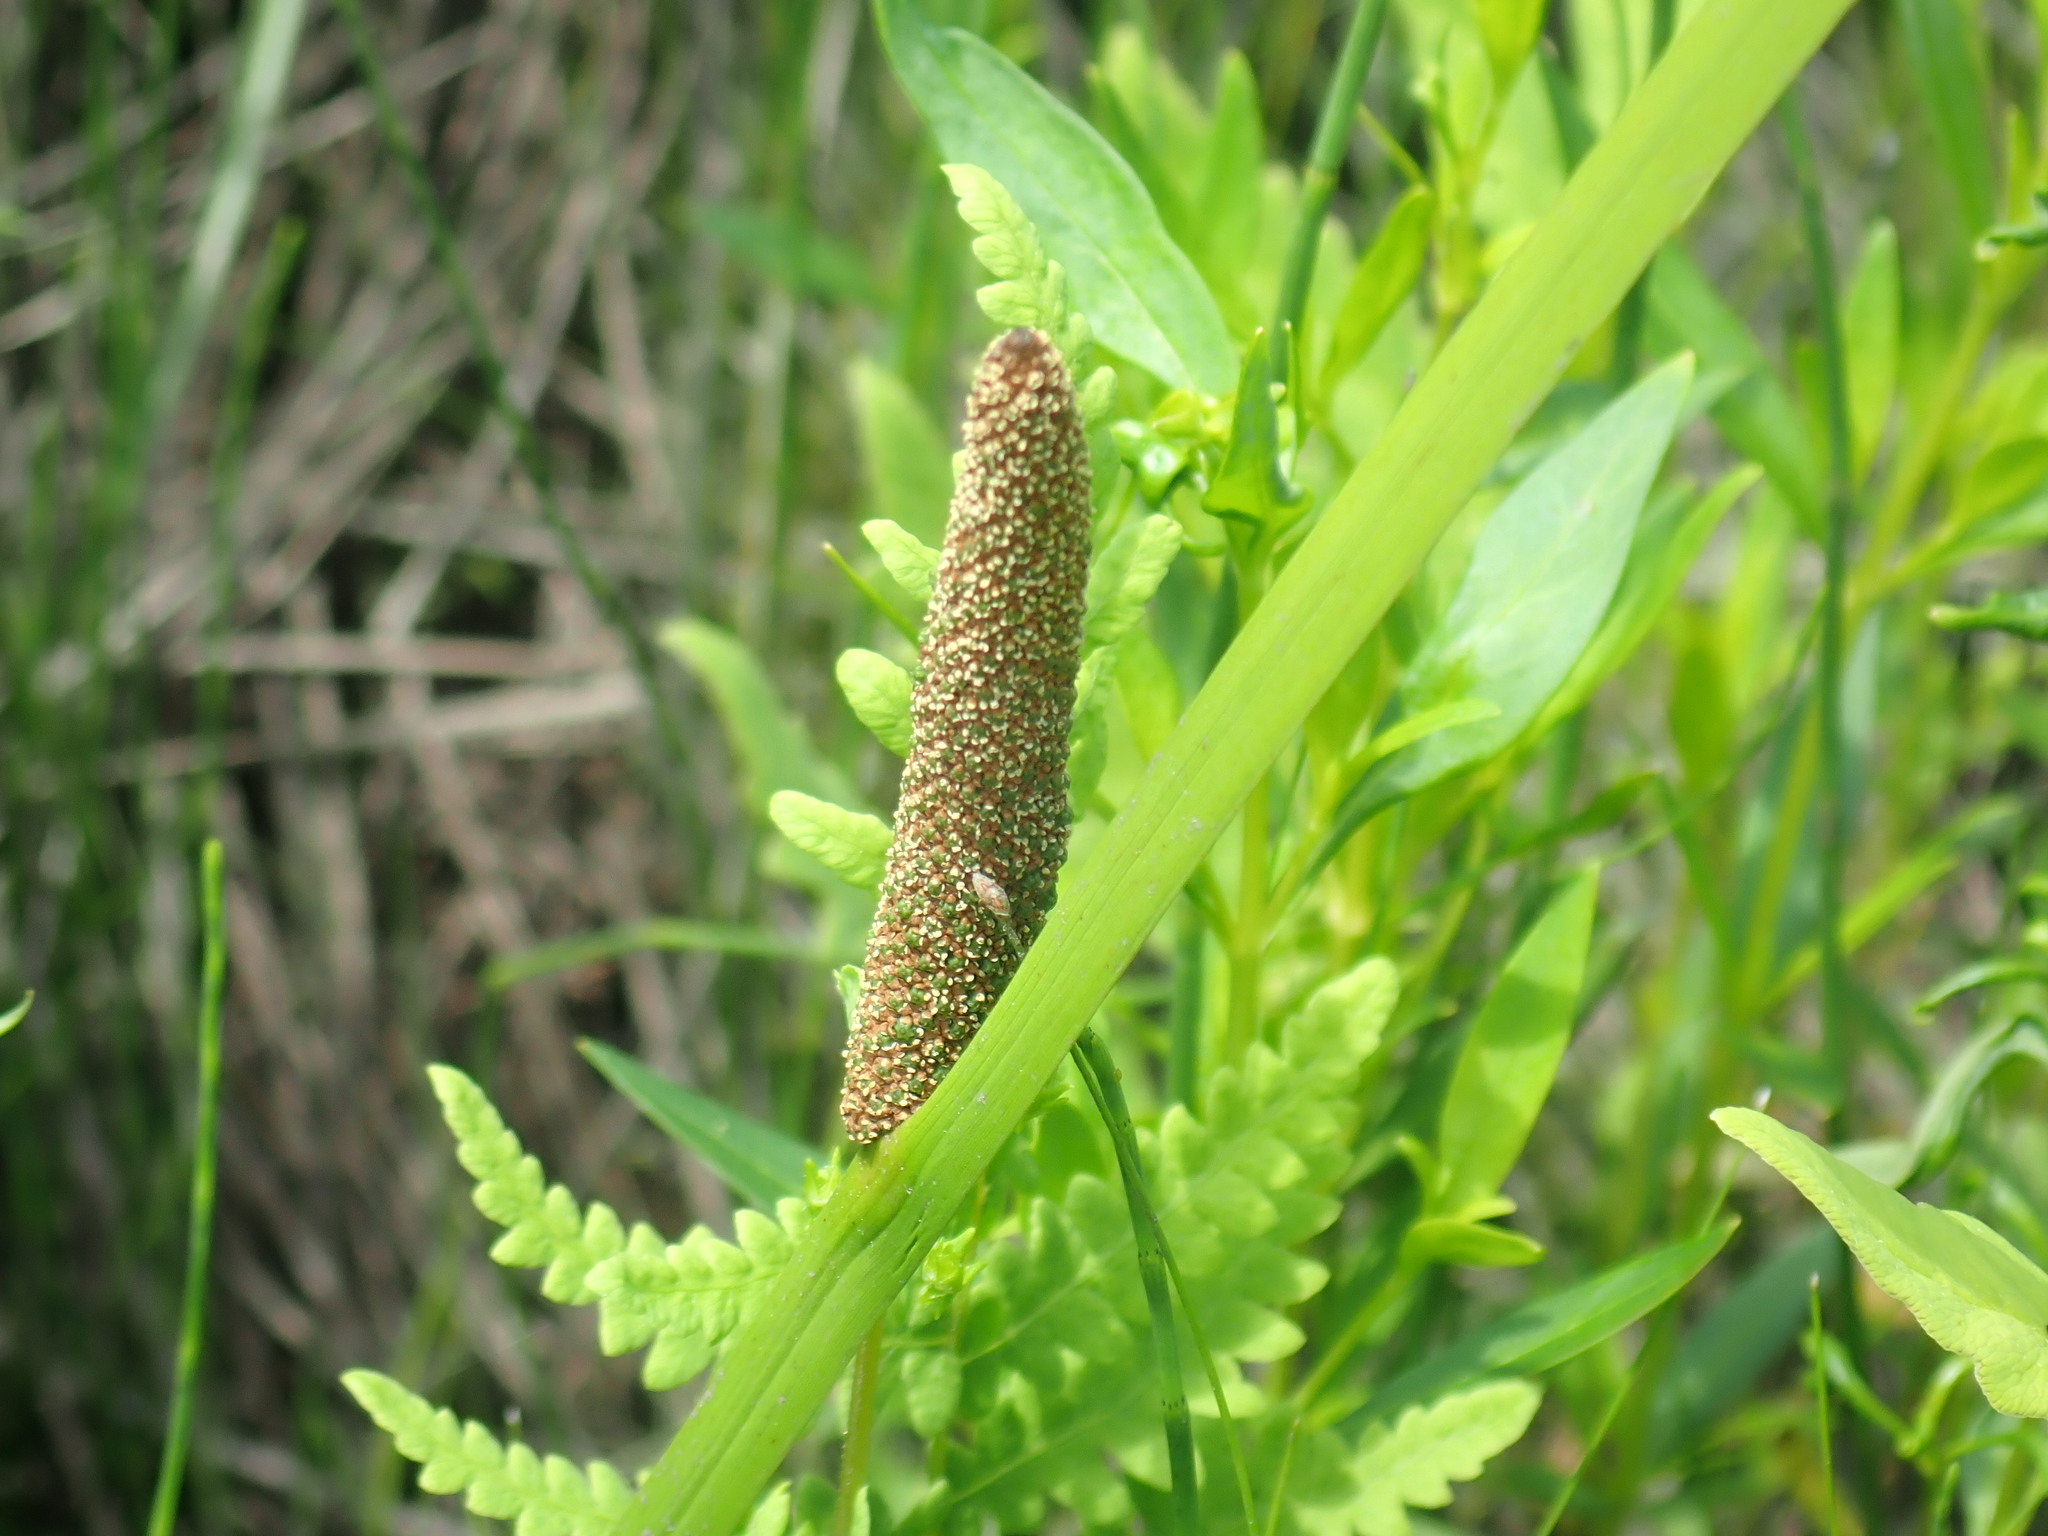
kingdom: Plantae
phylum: Tracheophyta
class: Liliopsida
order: Acorales
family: Acoraceae
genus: Acorus
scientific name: Acorus calamus
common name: Sweet-flag
